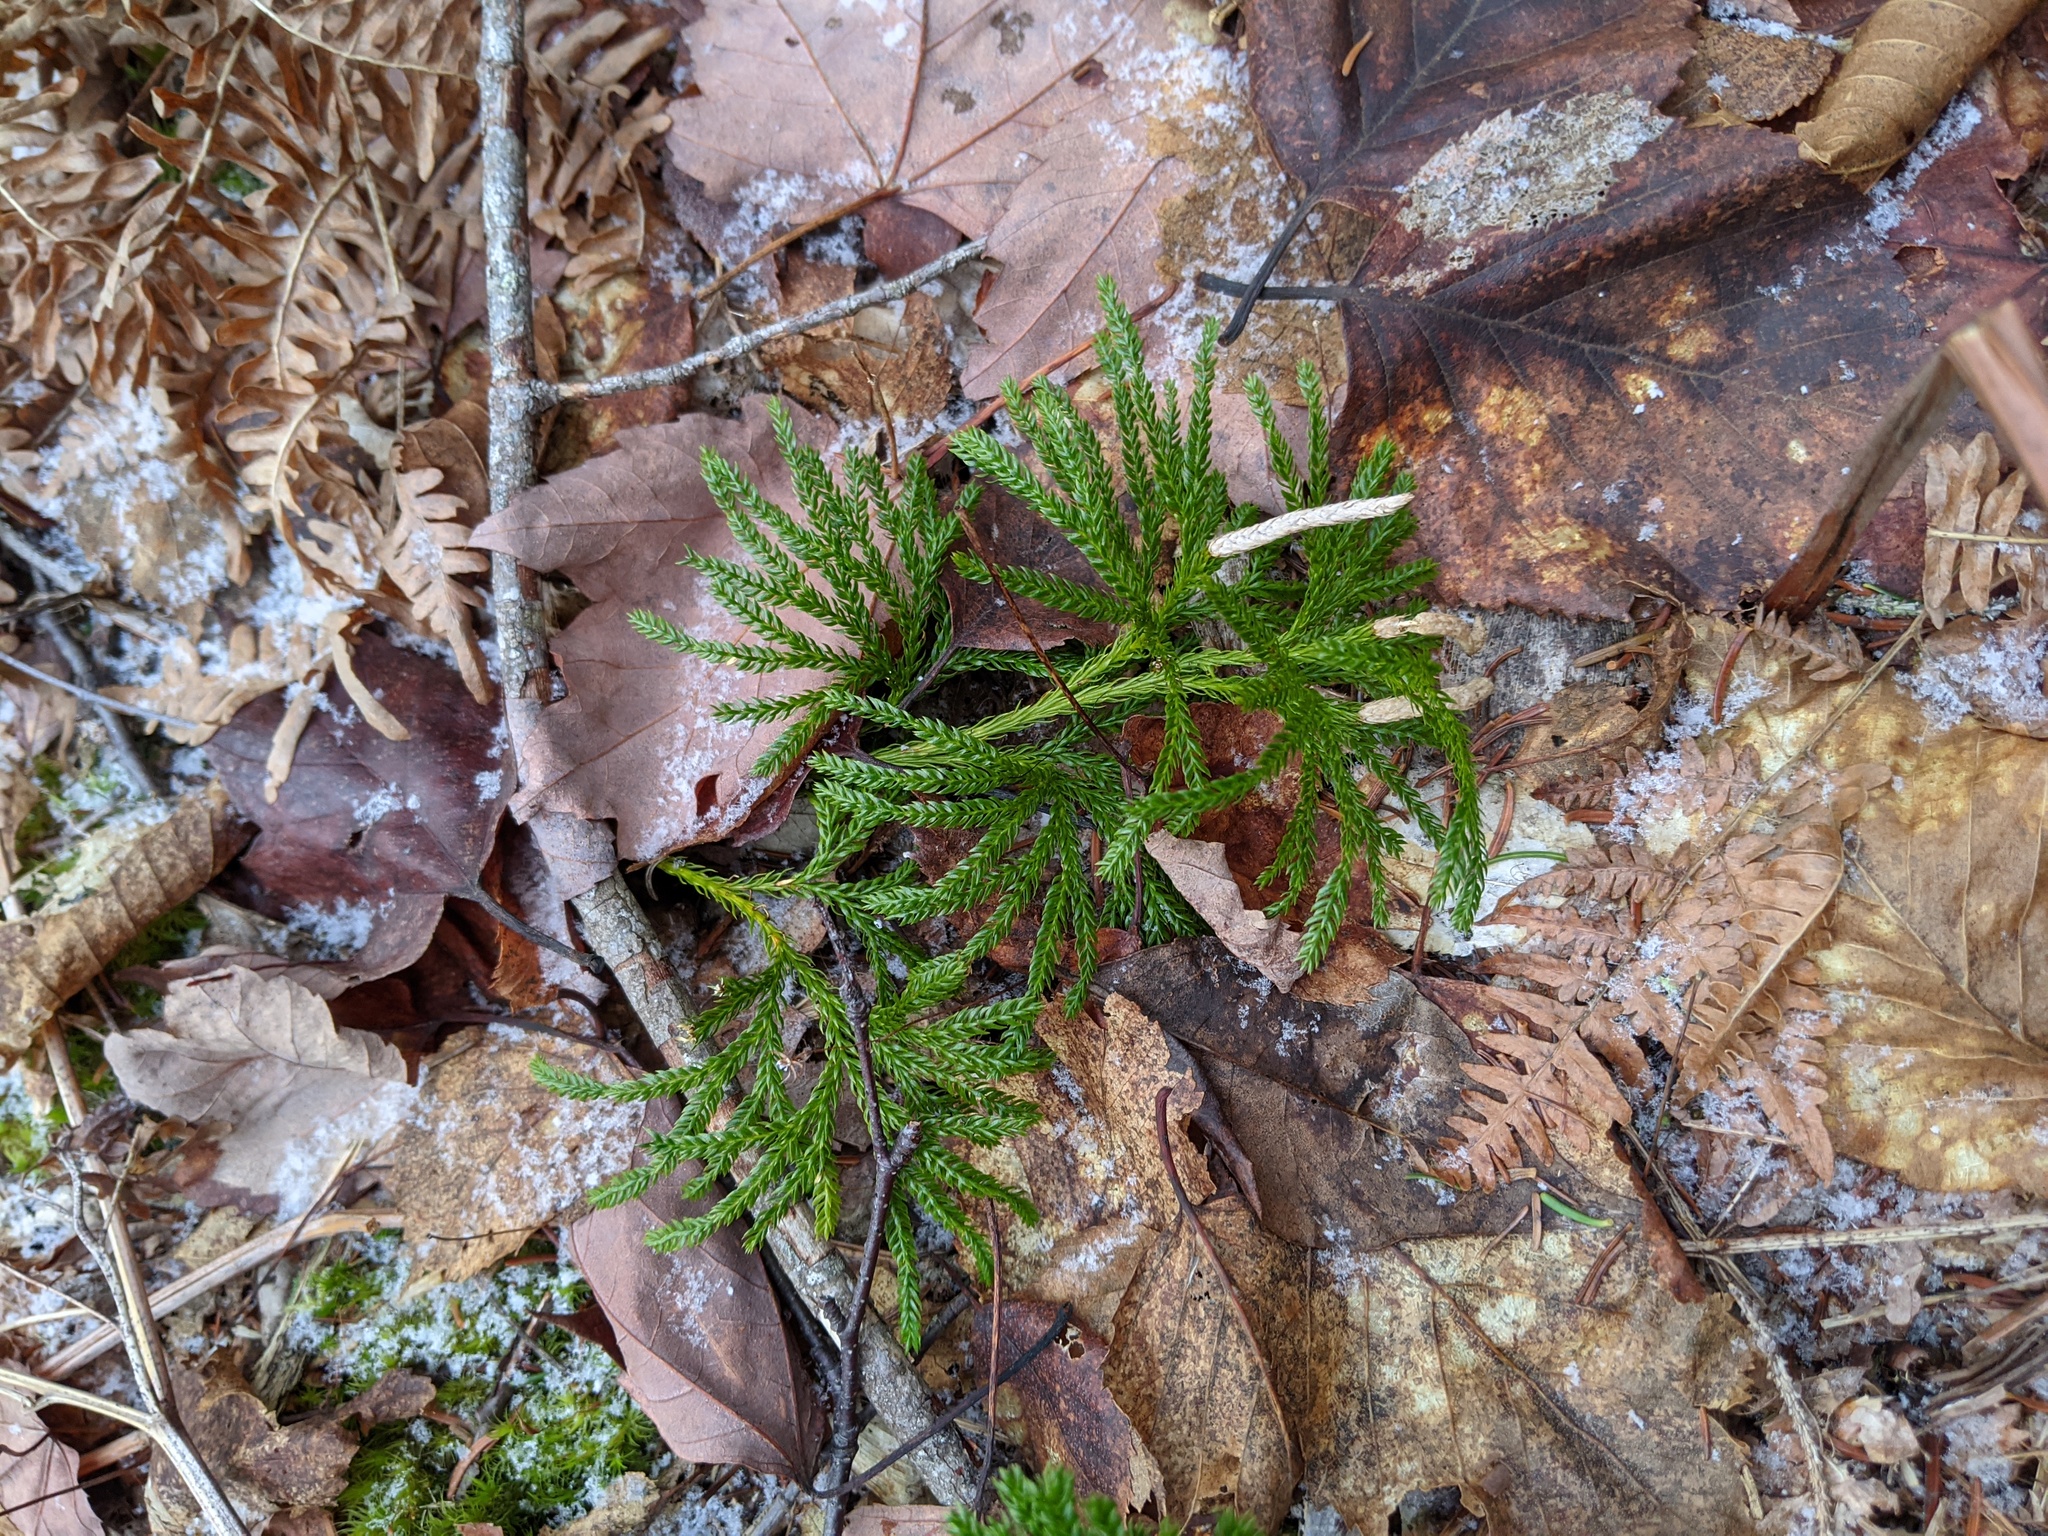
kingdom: Plantae
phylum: Tracheophyta
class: Lycopodiopsida
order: Lycopodiales
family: Lycopodiaceae
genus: Dendrolycopodium
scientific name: Dendrolycopodium obscurum
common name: Common ground-pine
